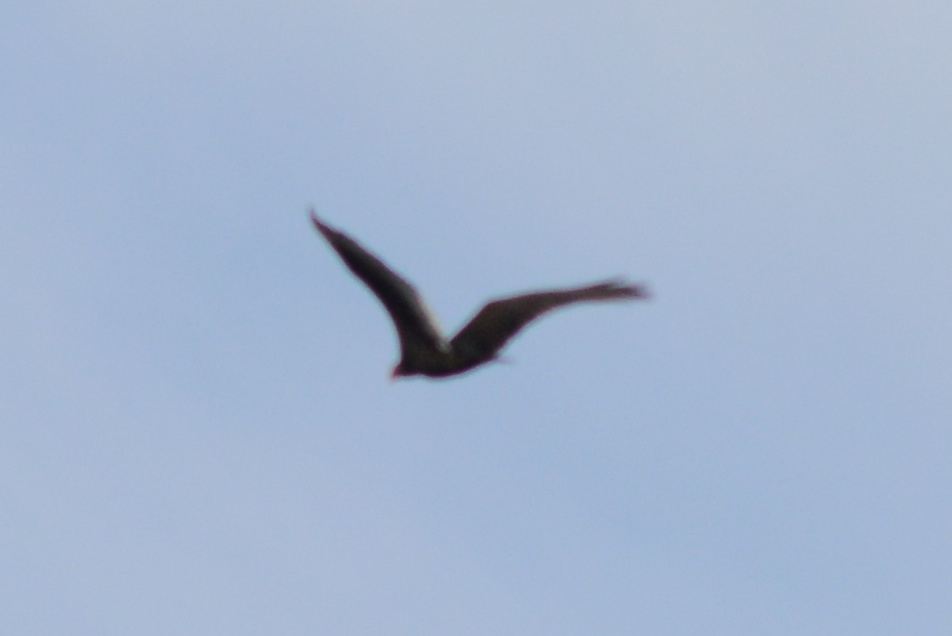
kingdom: Animalia
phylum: Chordata
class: Aves
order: Accipitriformes
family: Cathartidae
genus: Cathartes
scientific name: Cathartes aura
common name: Turkey vulture
